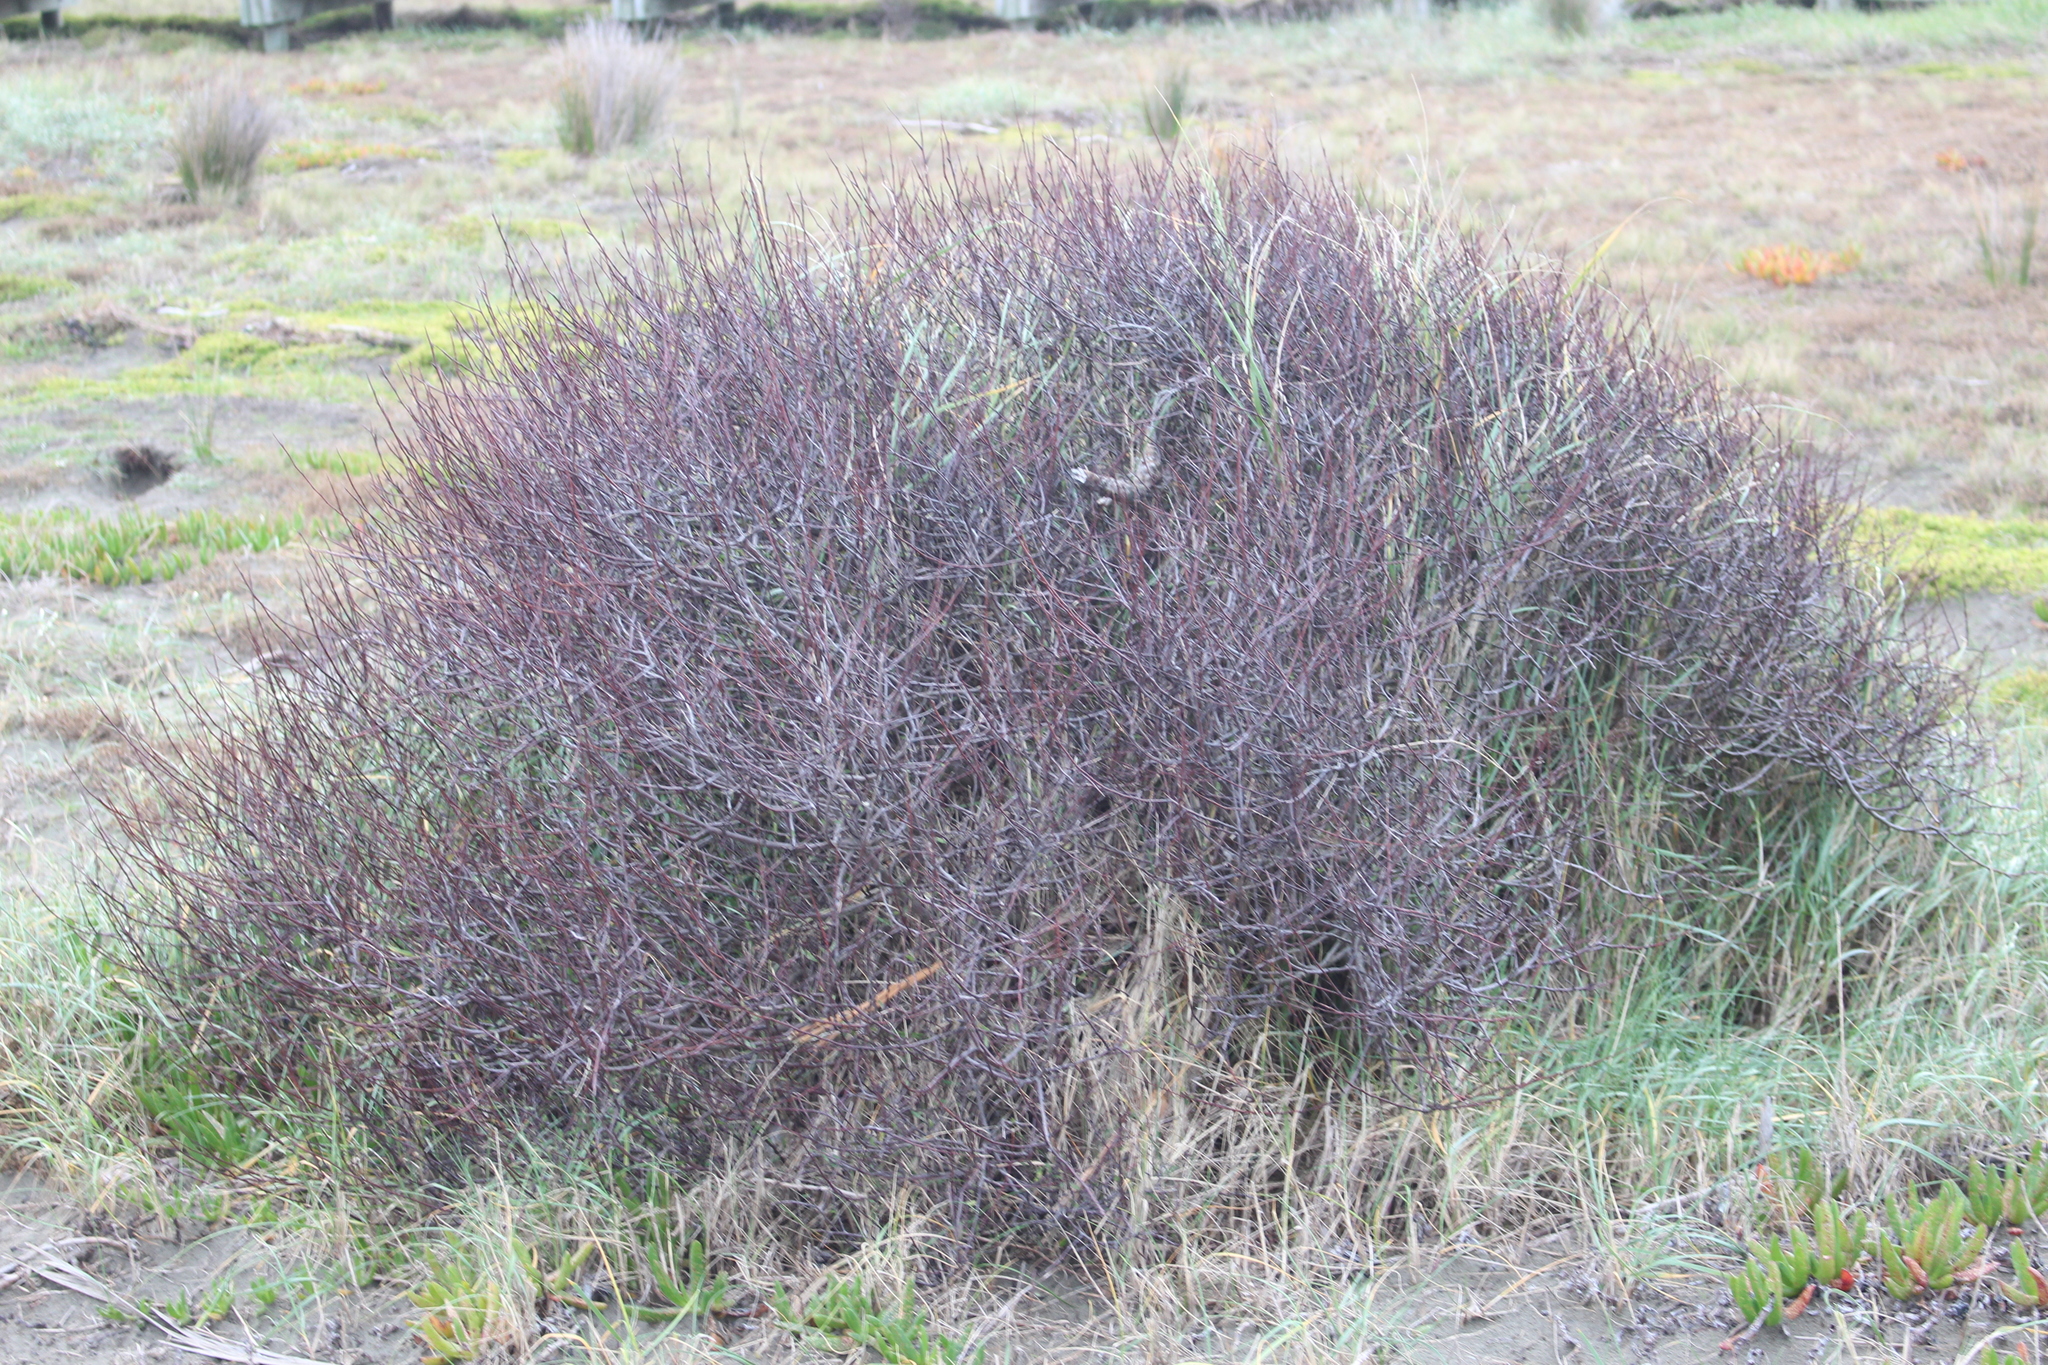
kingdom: Plantae
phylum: Tracheophyta
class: Magnoliopsida
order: Malvales
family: Malvaceae
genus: Plagianthus
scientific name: Plagianthus divaricatus
